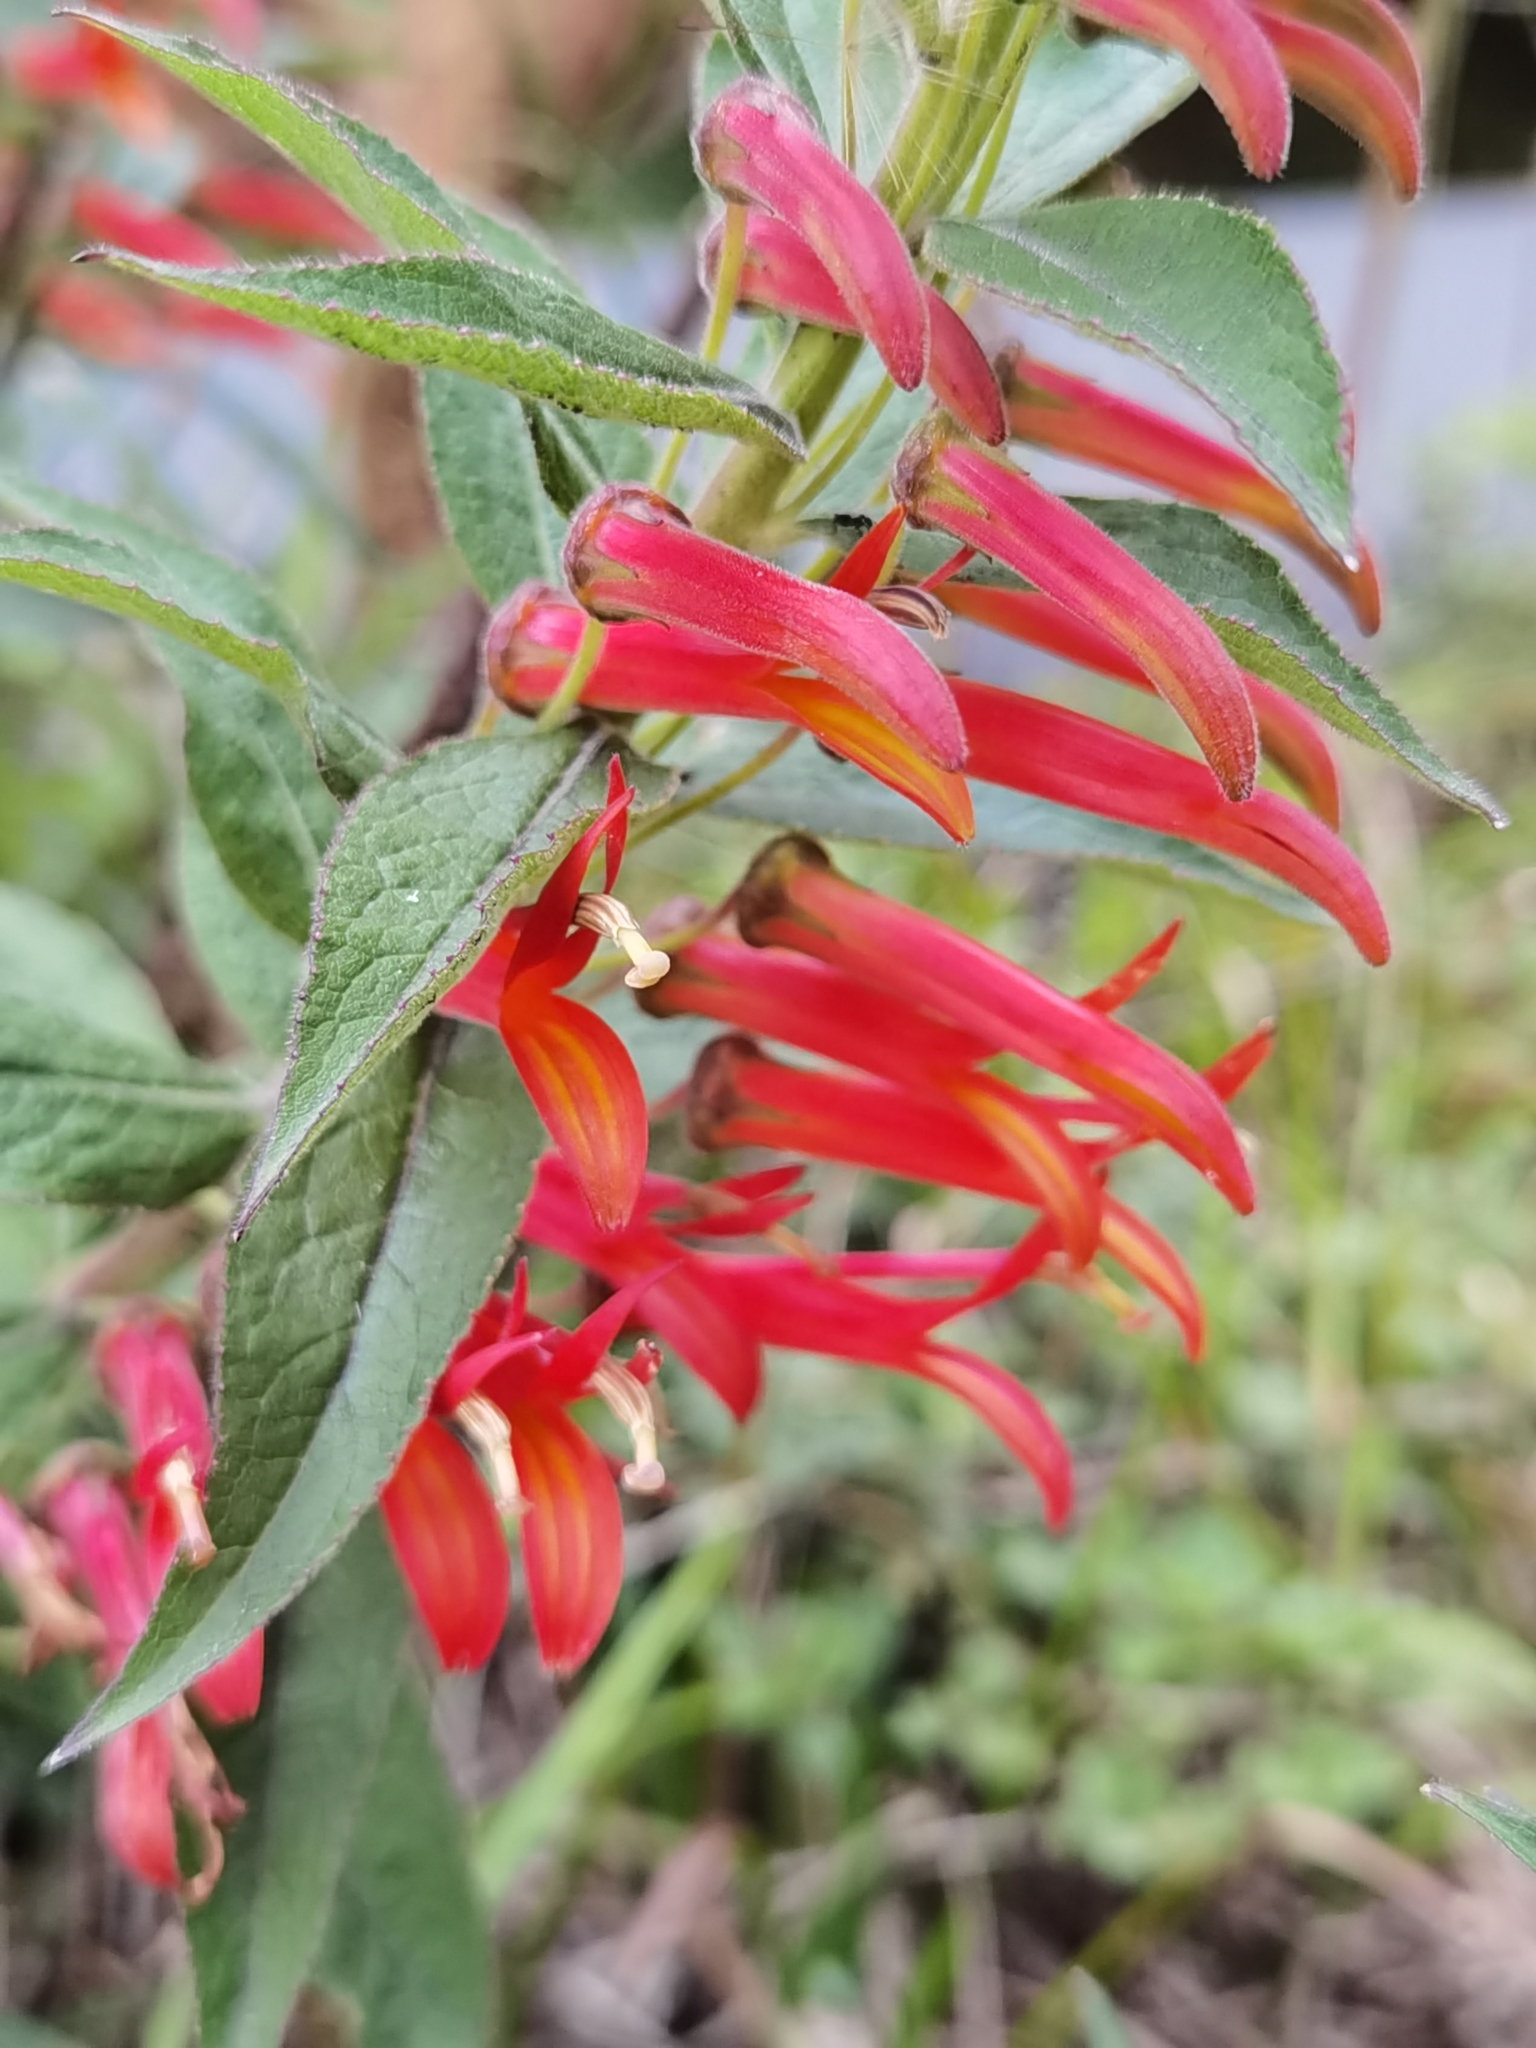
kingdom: Plantae
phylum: Tracheophyta
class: Magnoliopsida
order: Asterales
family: Campanulaceae
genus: Lobelia
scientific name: Lobelia laxiflora
